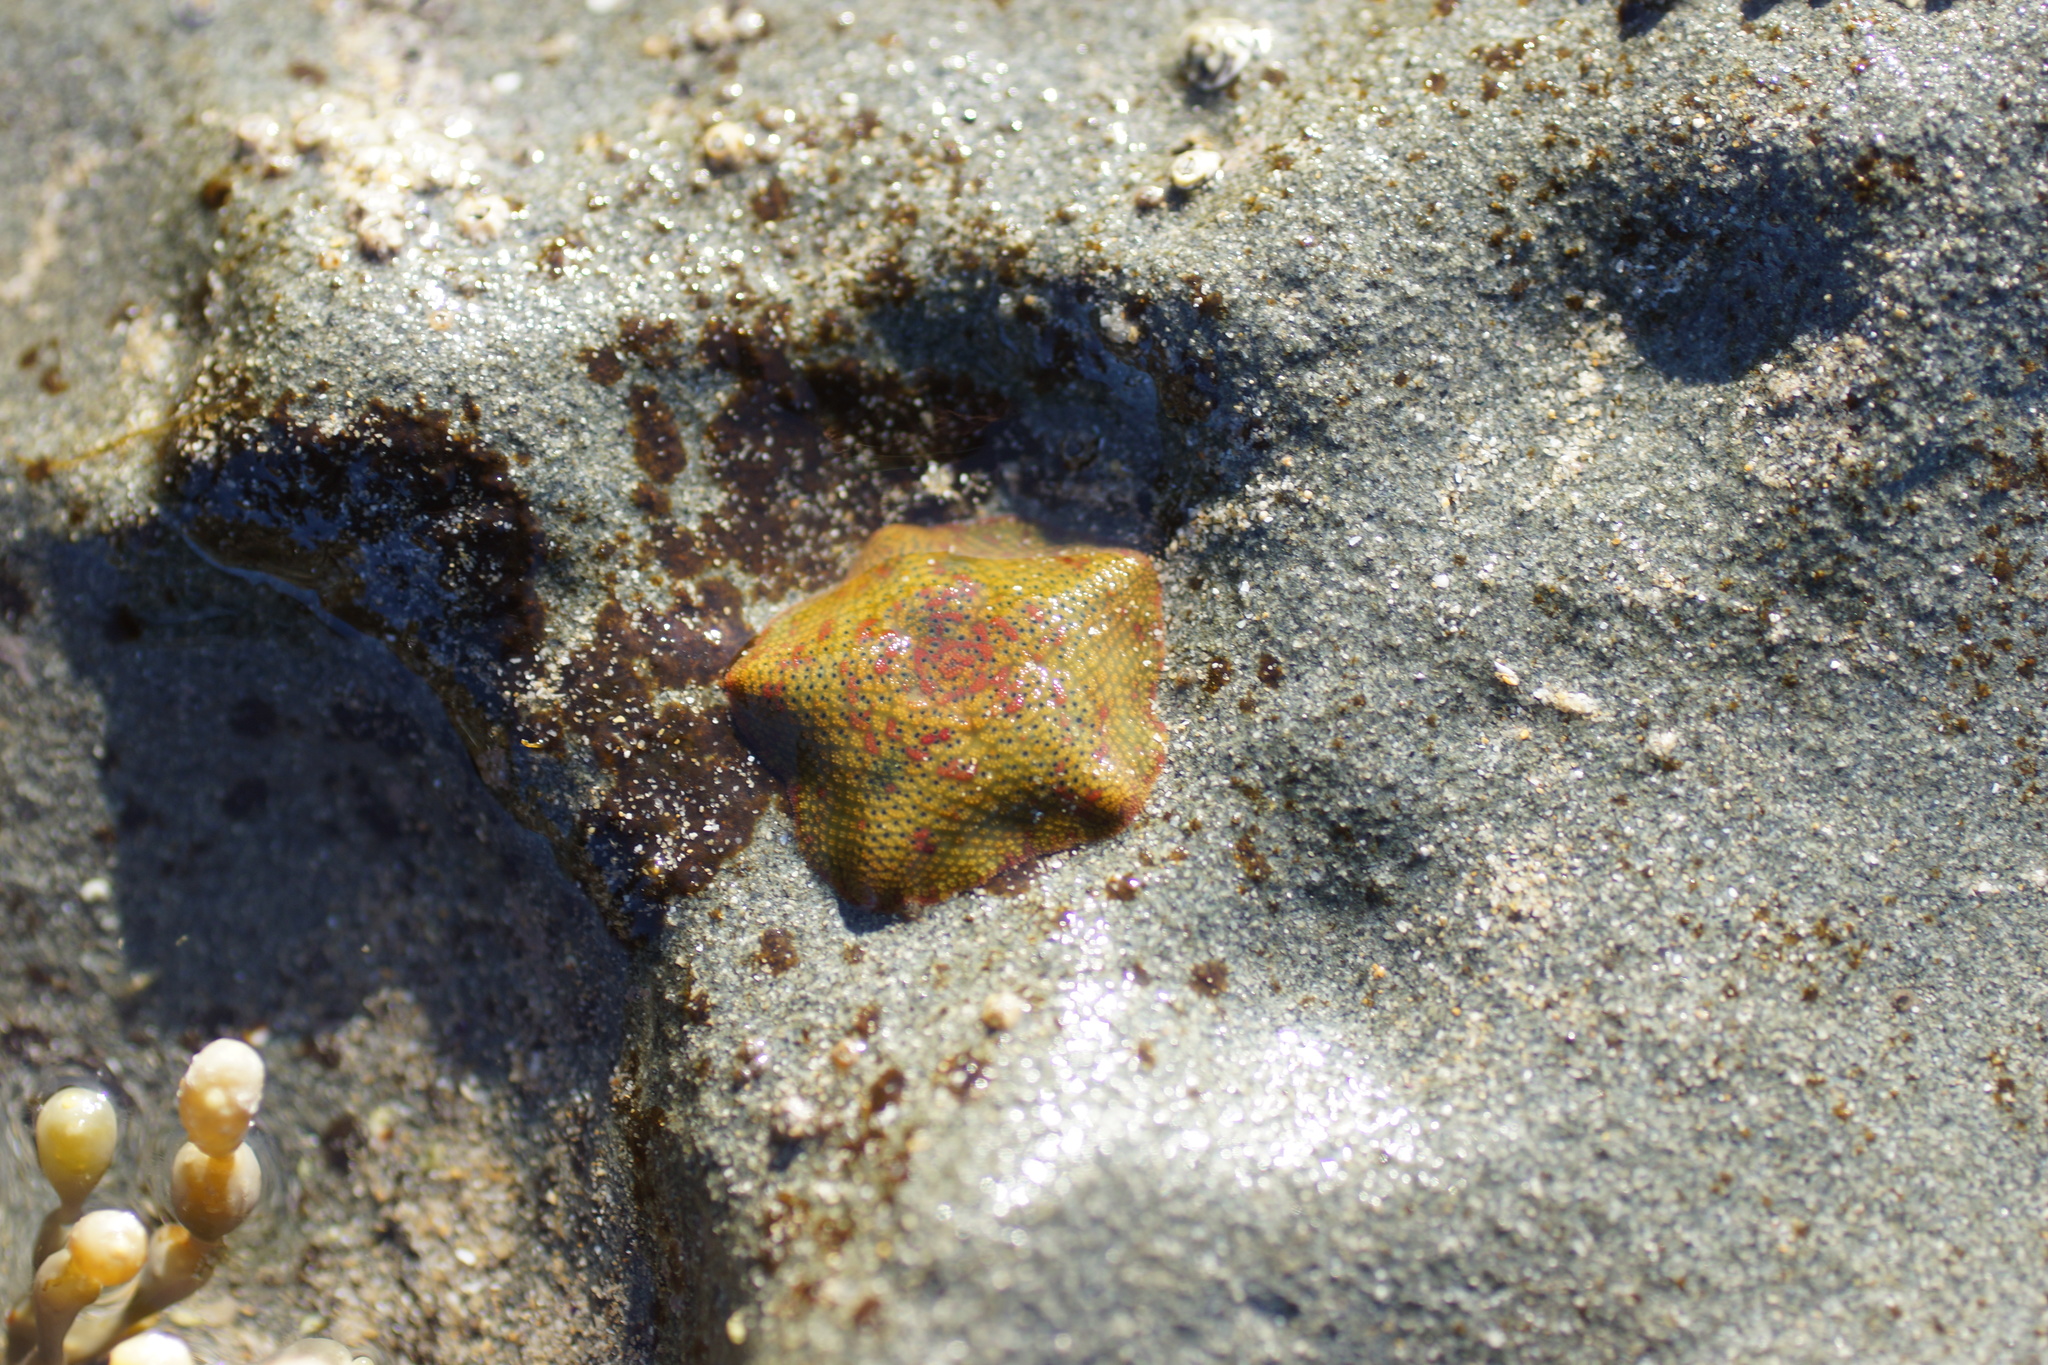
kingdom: Animalia
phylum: Echinodermata
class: Asteroidea
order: Valvatida
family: Asterinidae
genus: Parvulastra
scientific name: Parvulastra exigua
